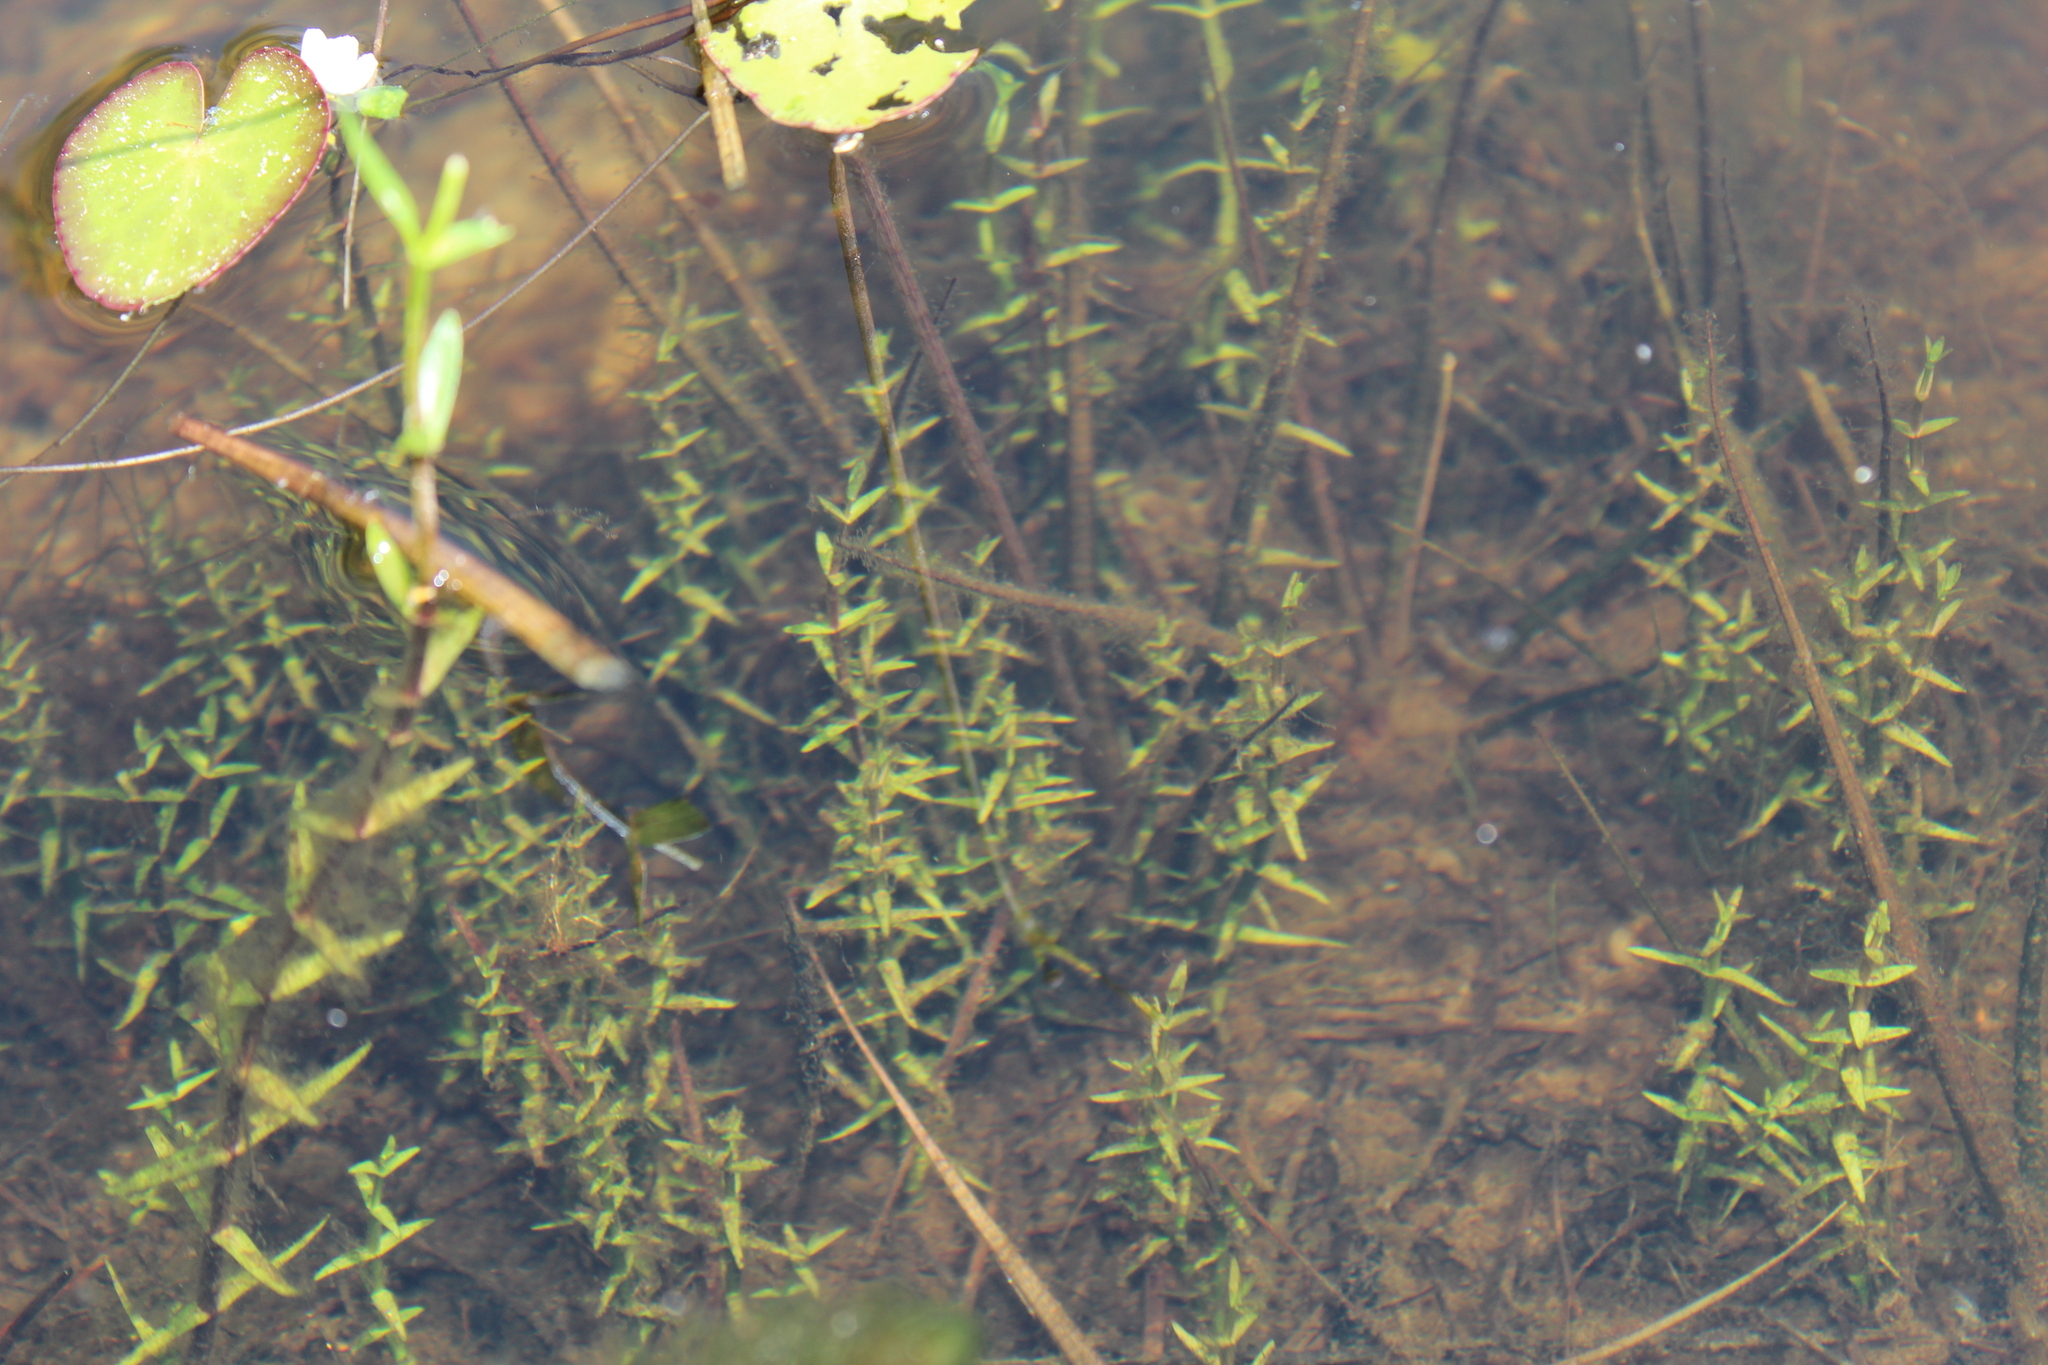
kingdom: Plantae
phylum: Tracheophyta
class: Magnoliopsida
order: Lamiales
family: Plantaginaceae
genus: Gratiola
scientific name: Gratiola lutea
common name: Golden hedge-hyssop
